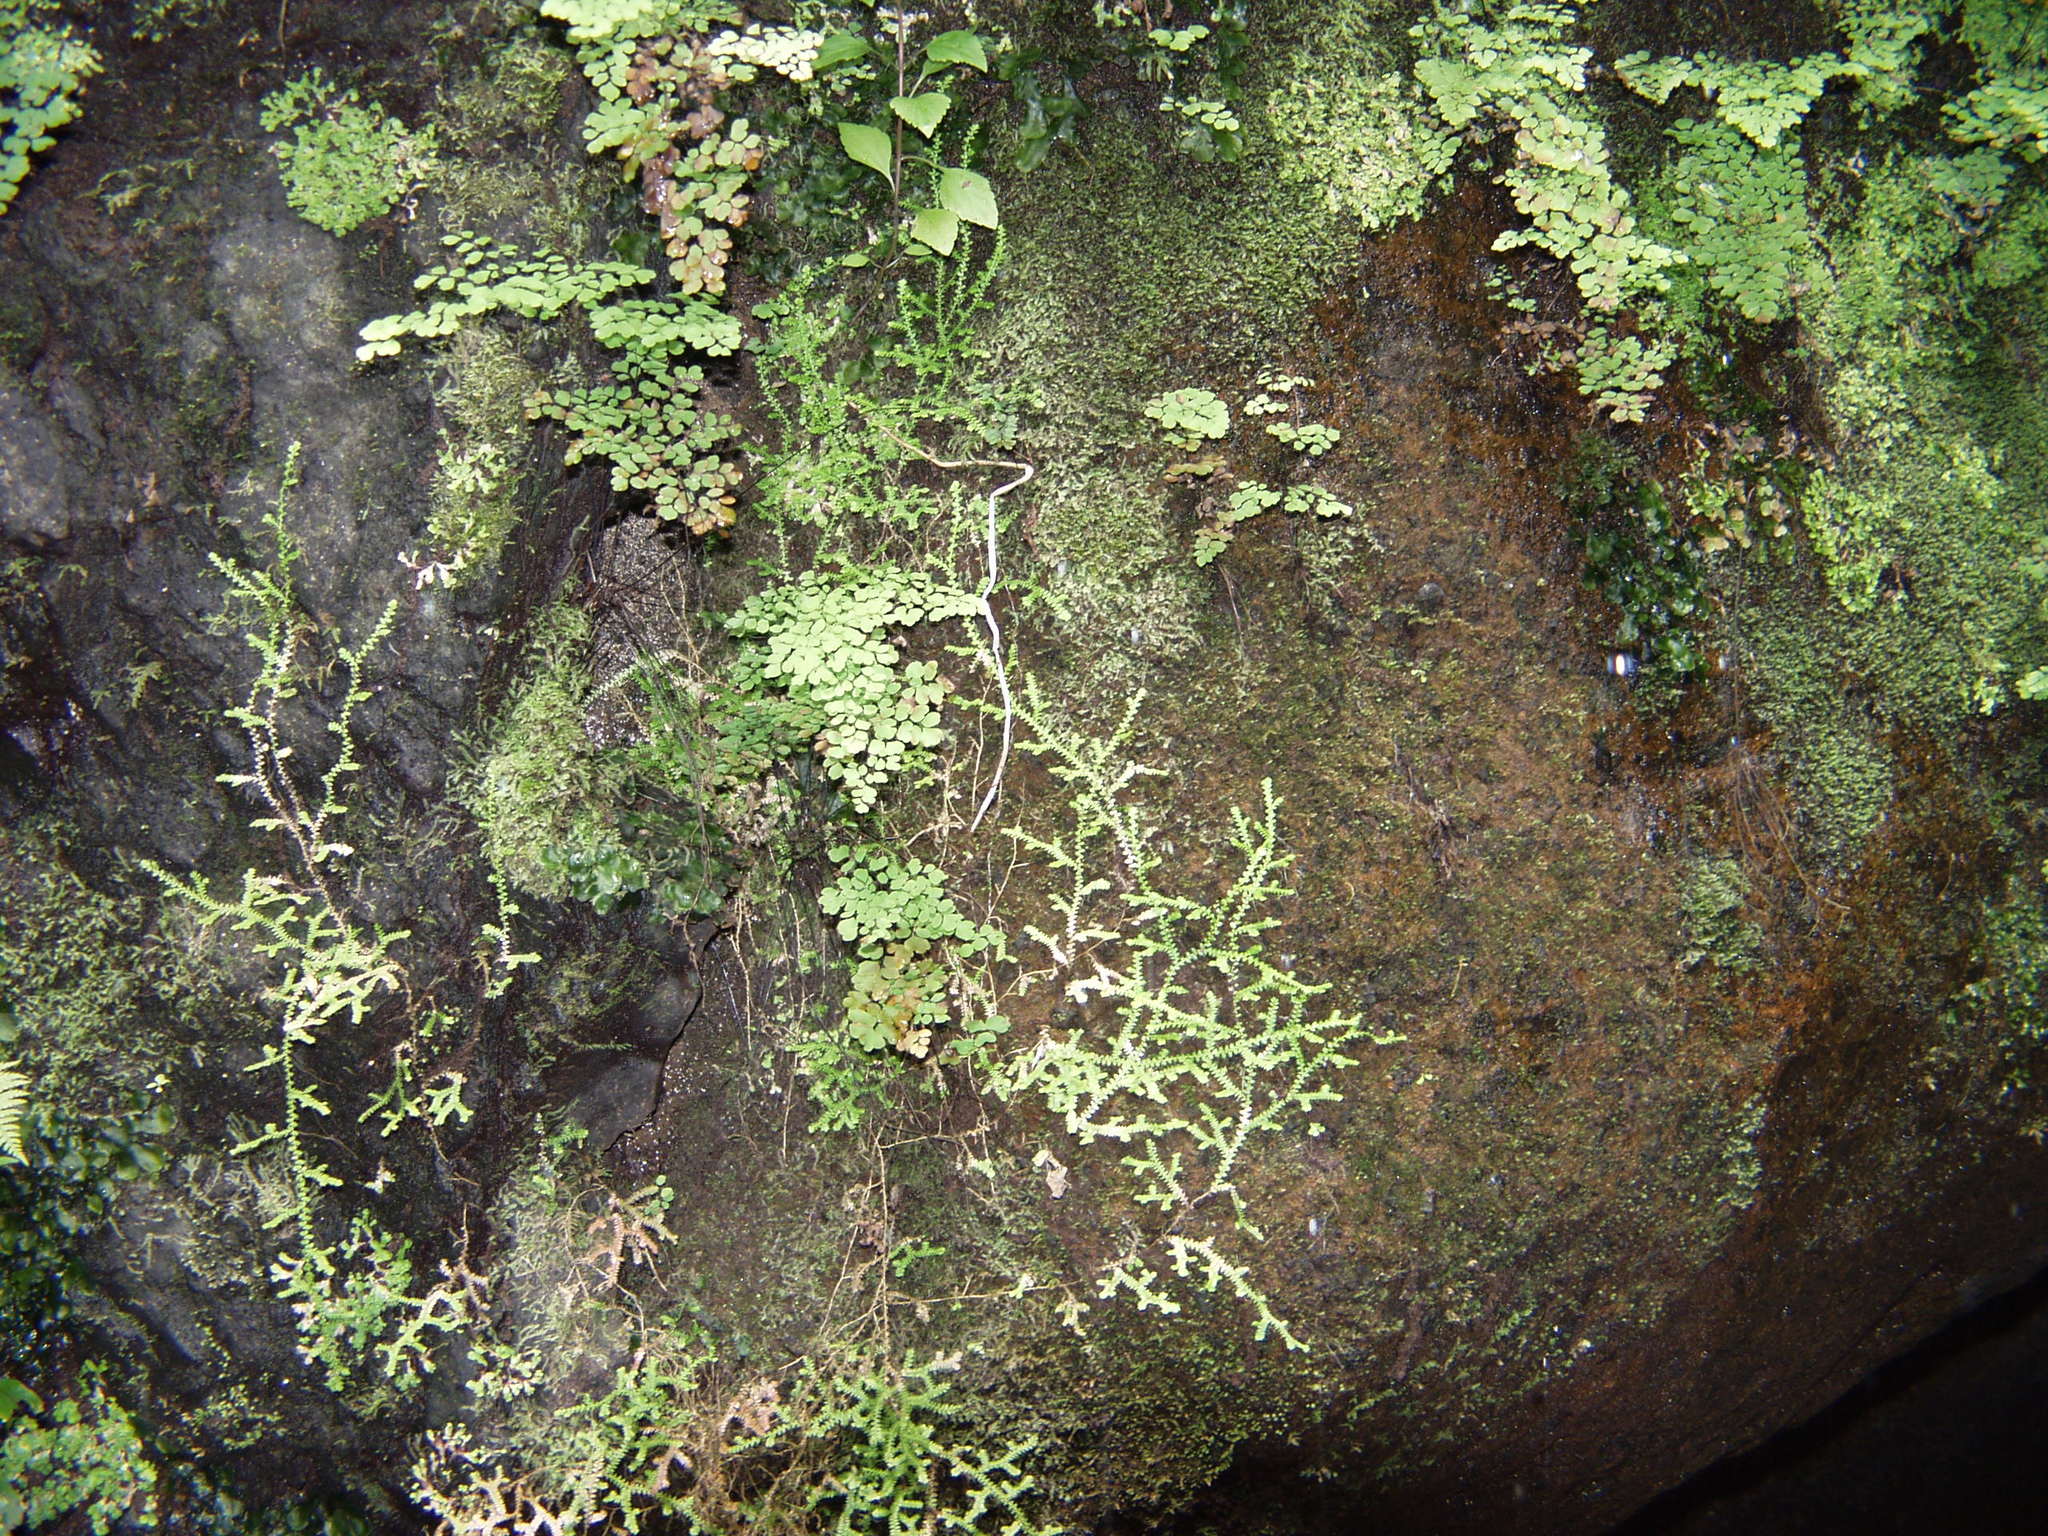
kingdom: Plantae
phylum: Tracheophyta
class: Lycopodiopsida
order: Selaginellales
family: Selaginellaceae
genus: Selaginella
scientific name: Selaginella denticulata
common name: Toothed-leaved clubmoss
